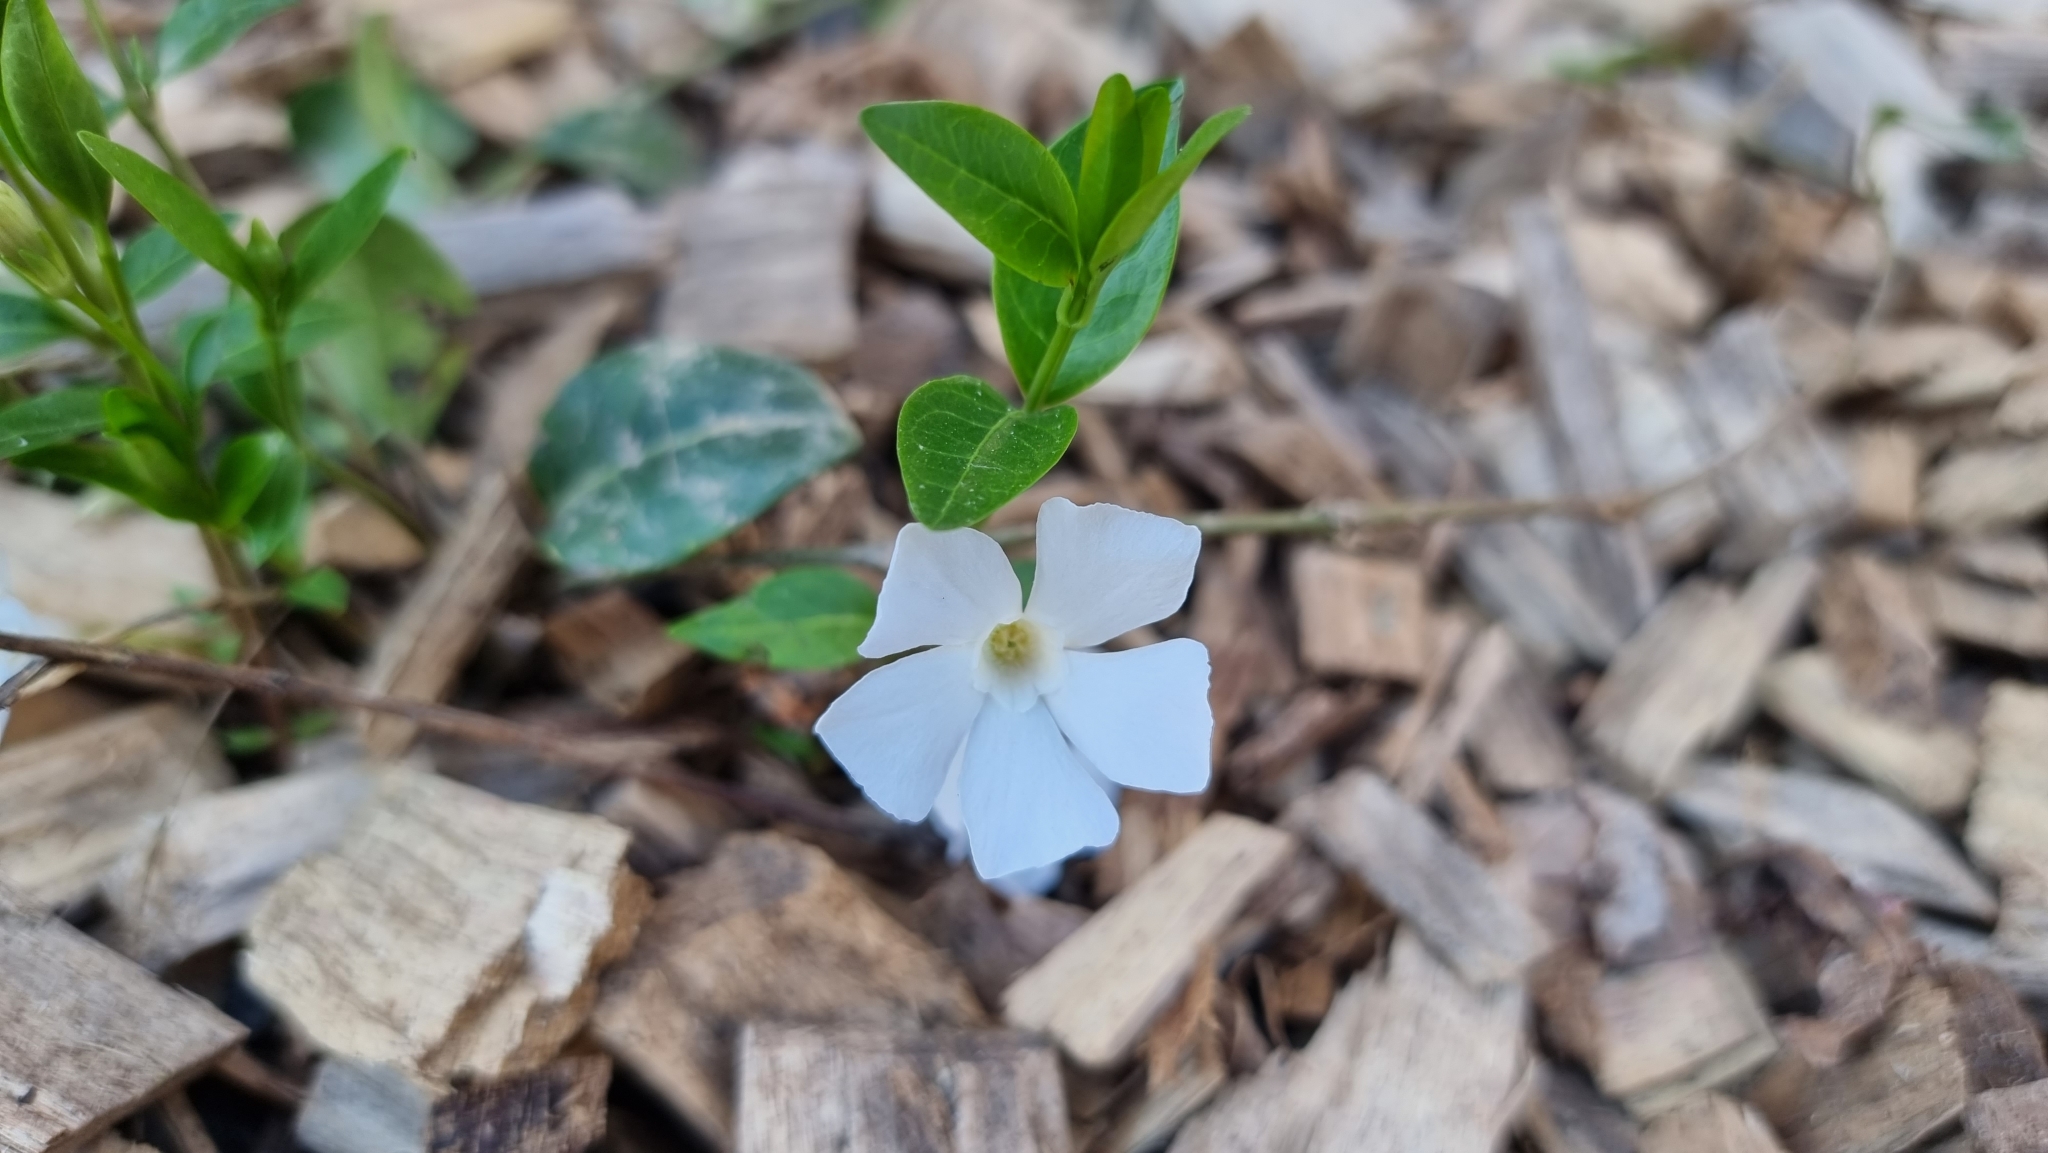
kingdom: Plantae
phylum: Tracheophyta
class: Magnoliopsida
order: Gentianales
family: Apocynaceae
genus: Vinca
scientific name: Vinca minor
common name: Lesser periwinkle
